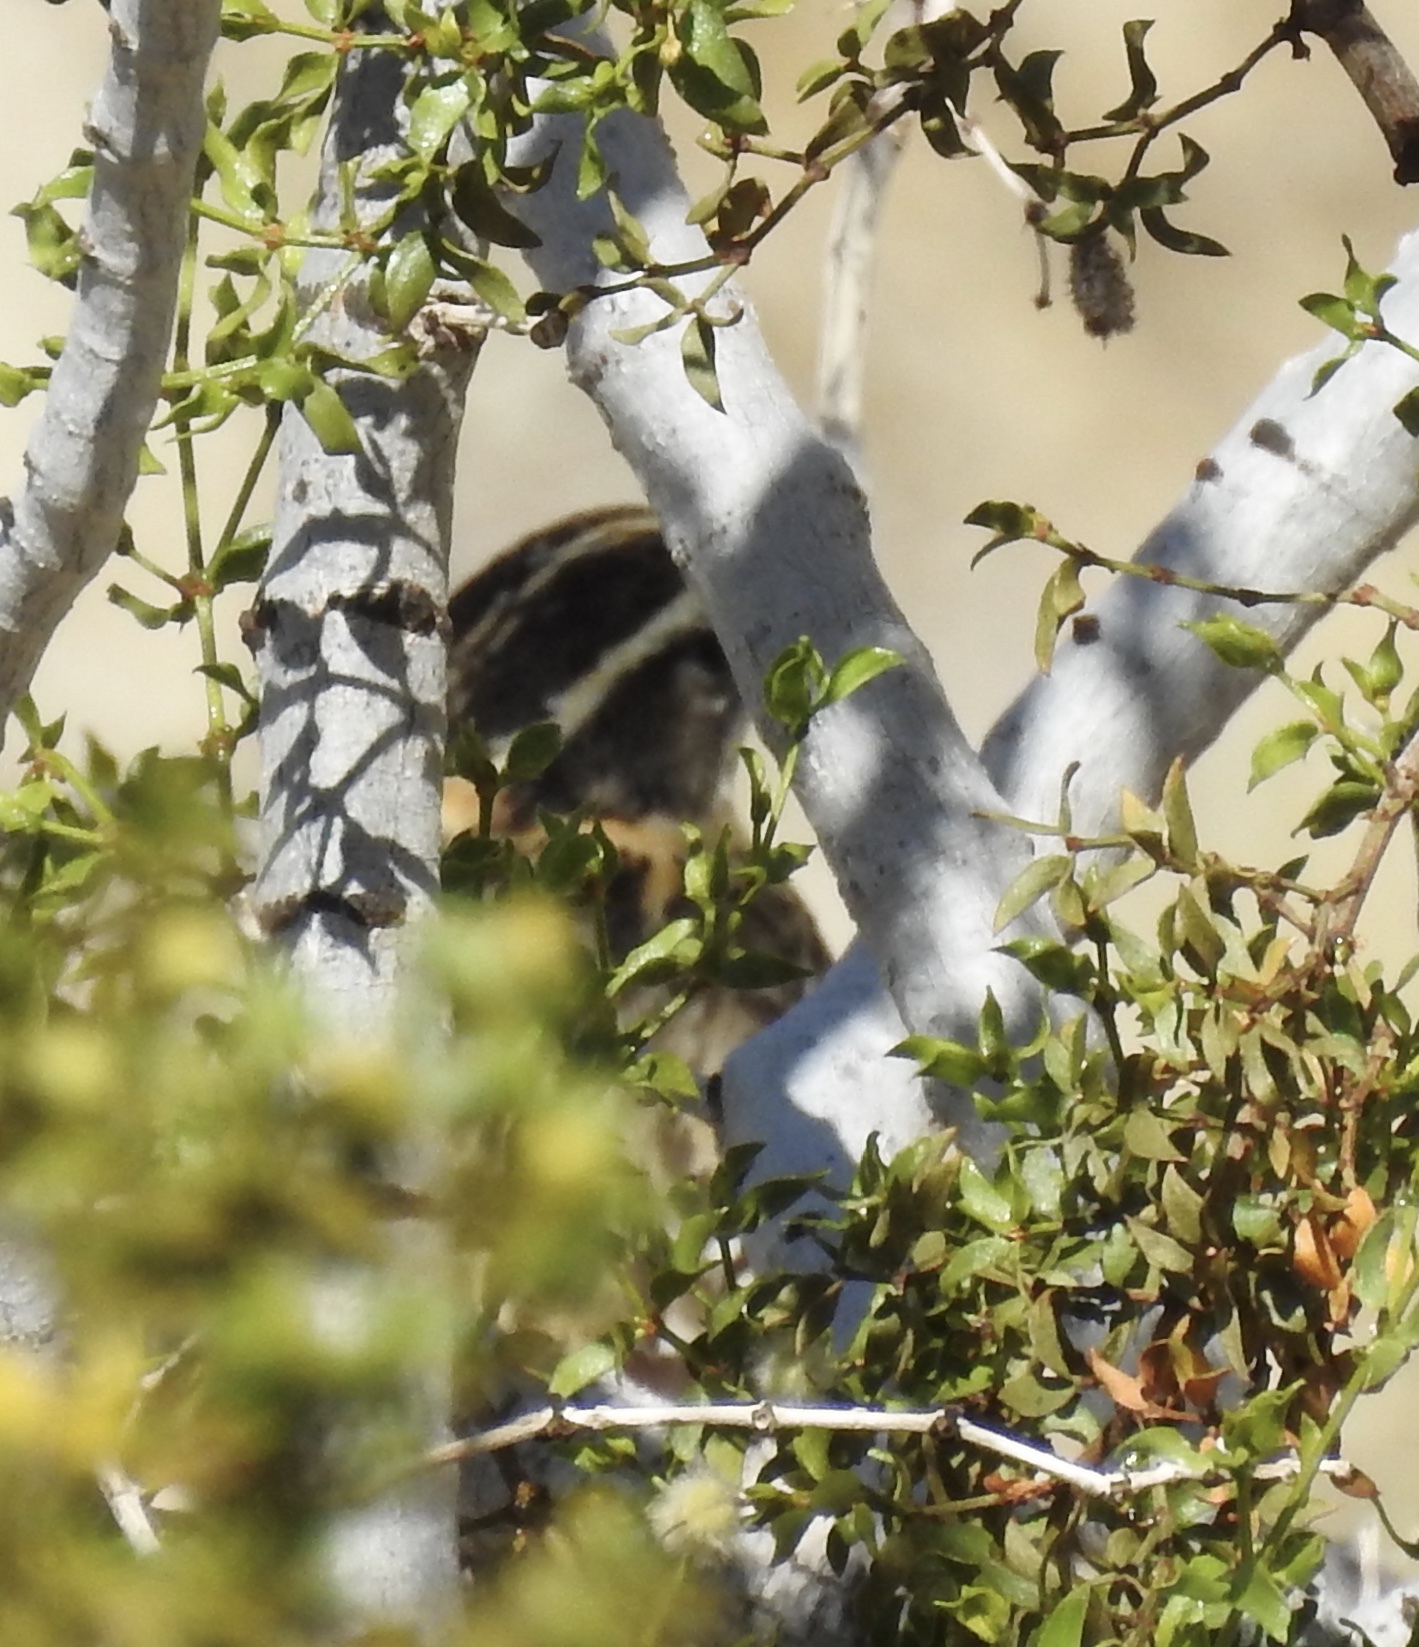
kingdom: Animalia
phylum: Chordata
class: Aves
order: Passeriformes
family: Cardinalidae
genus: Pheucticus
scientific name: Pheucticus melanocephalus
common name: Black-headed grosbeak
